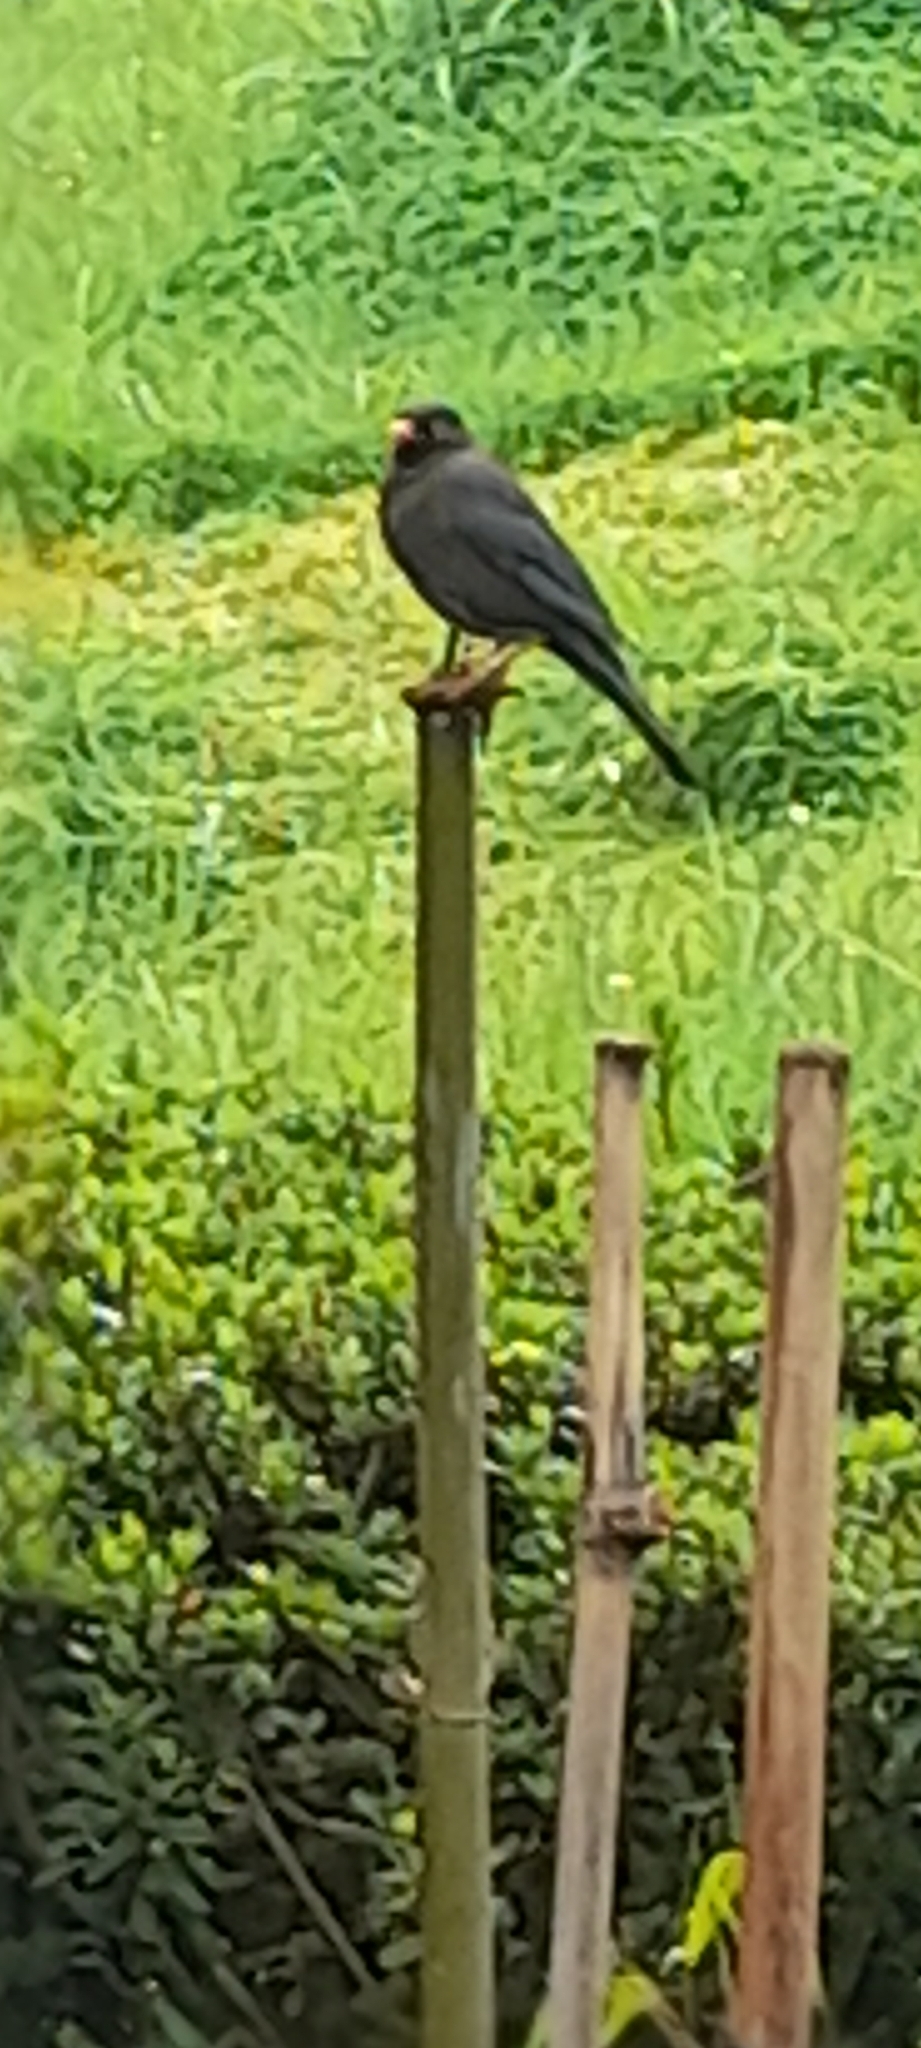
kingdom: Animalia
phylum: Chordata
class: Aves
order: Passeriformes
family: Turdidae
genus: Turdus
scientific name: Turdus simillimus
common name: Indian blackbird
